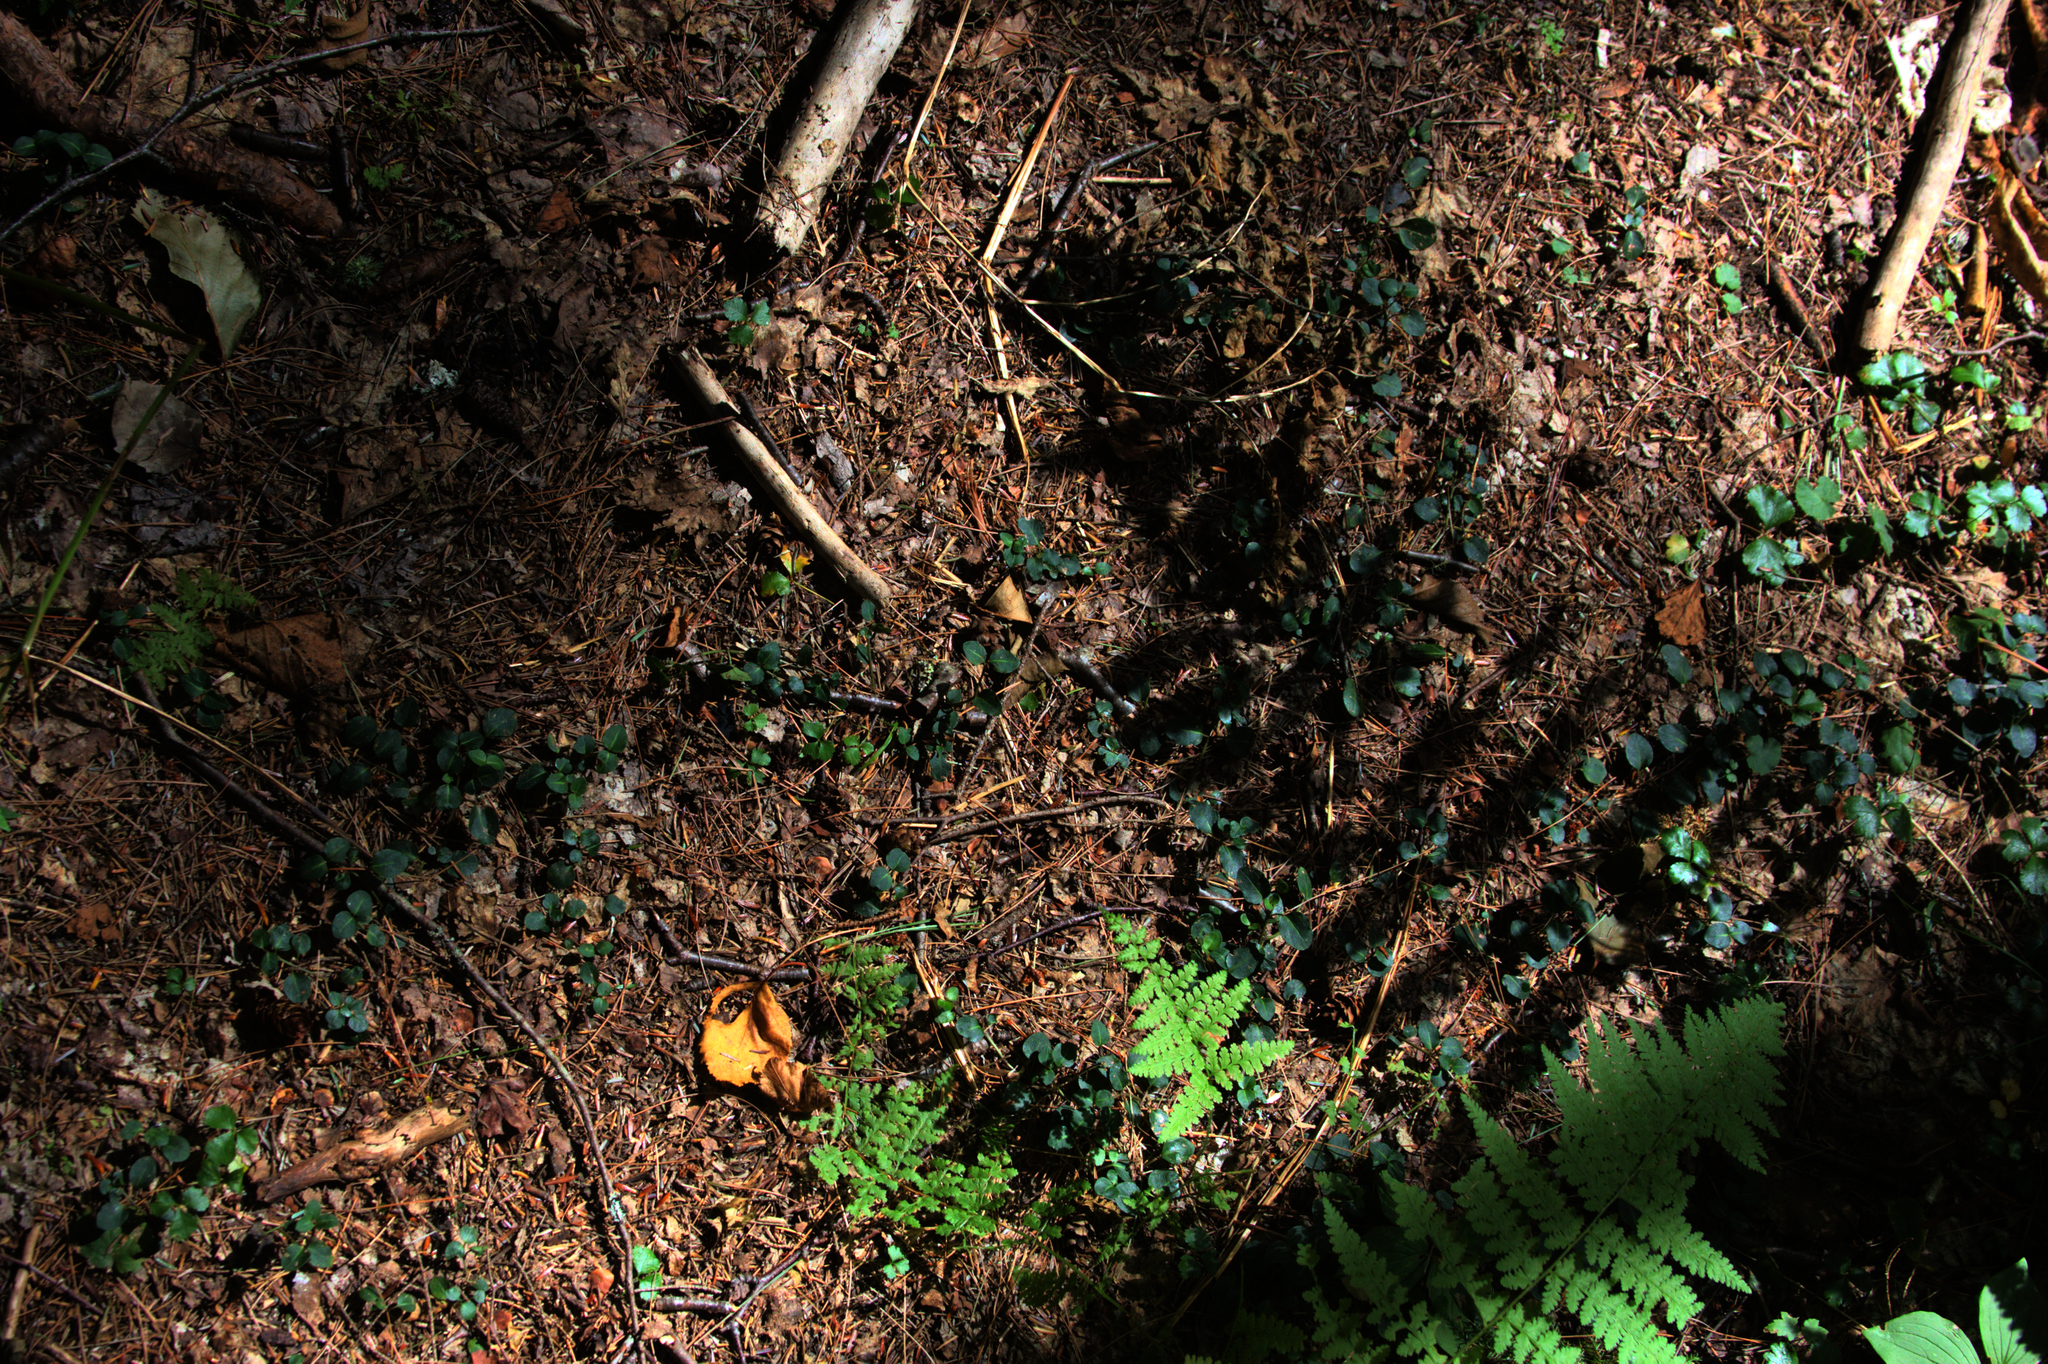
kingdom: Plantae
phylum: Tracheophyta
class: Magnoliopsida
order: Gentianales
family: Rubiaceae
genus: Mitchella
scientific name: Mitchella repens
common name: Partridge-berry
